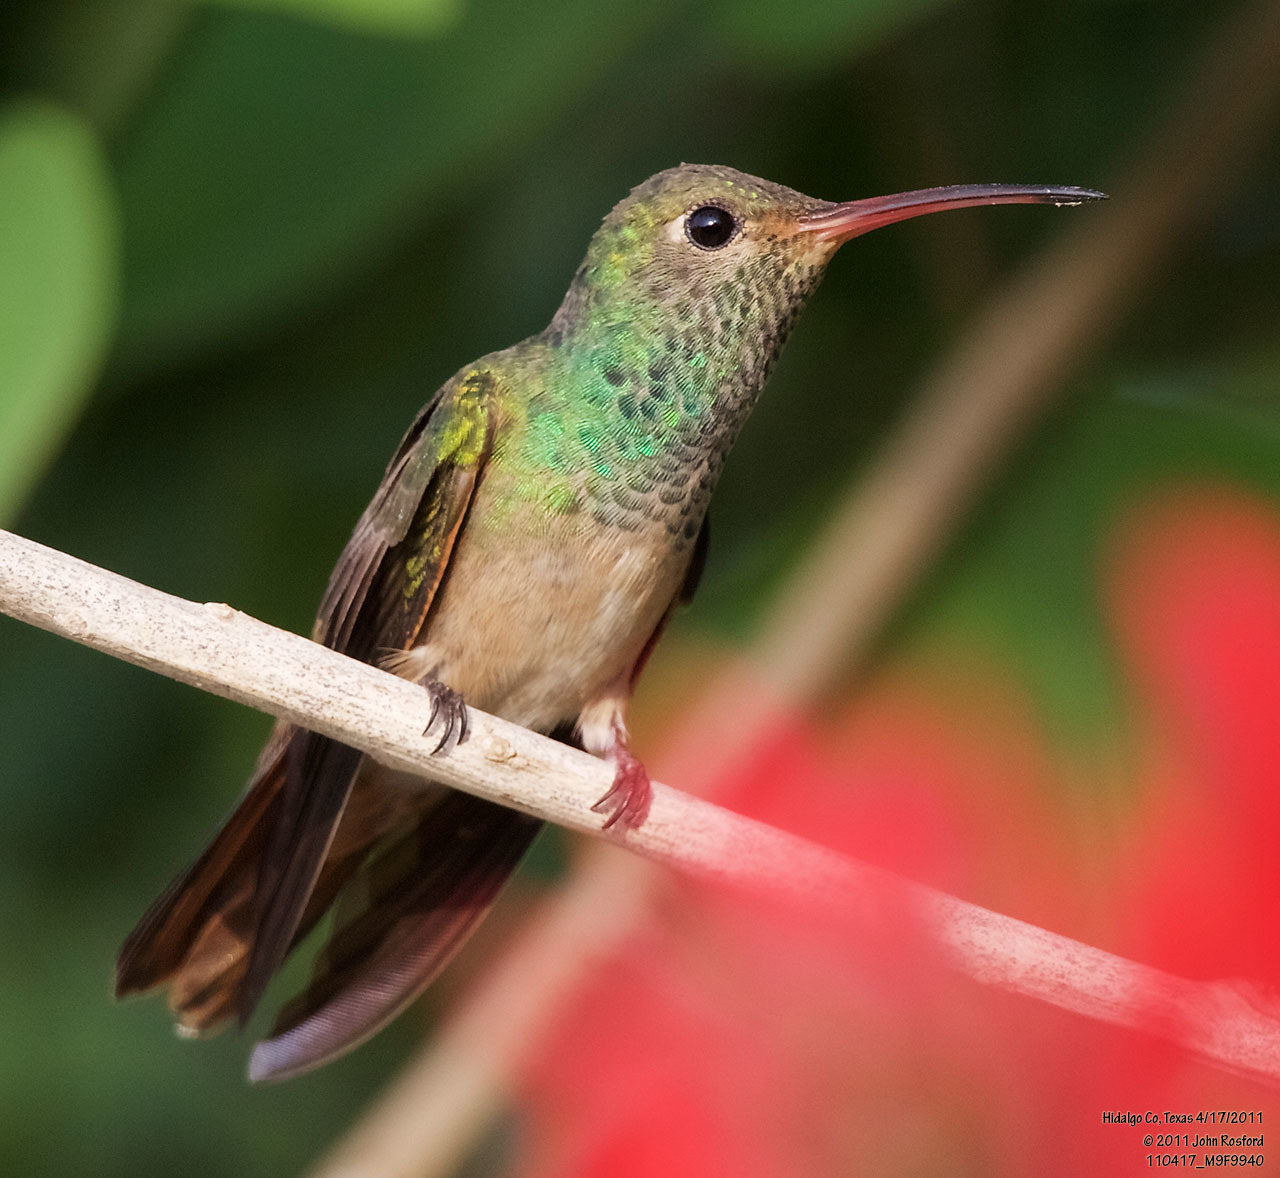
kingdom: Animalia
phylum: Chordata
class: Aves
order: Apodiformes
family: Trochilidae
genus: Amazilia
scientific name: Amazilia yucatanensis
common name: Buff-bellied hummingbird
